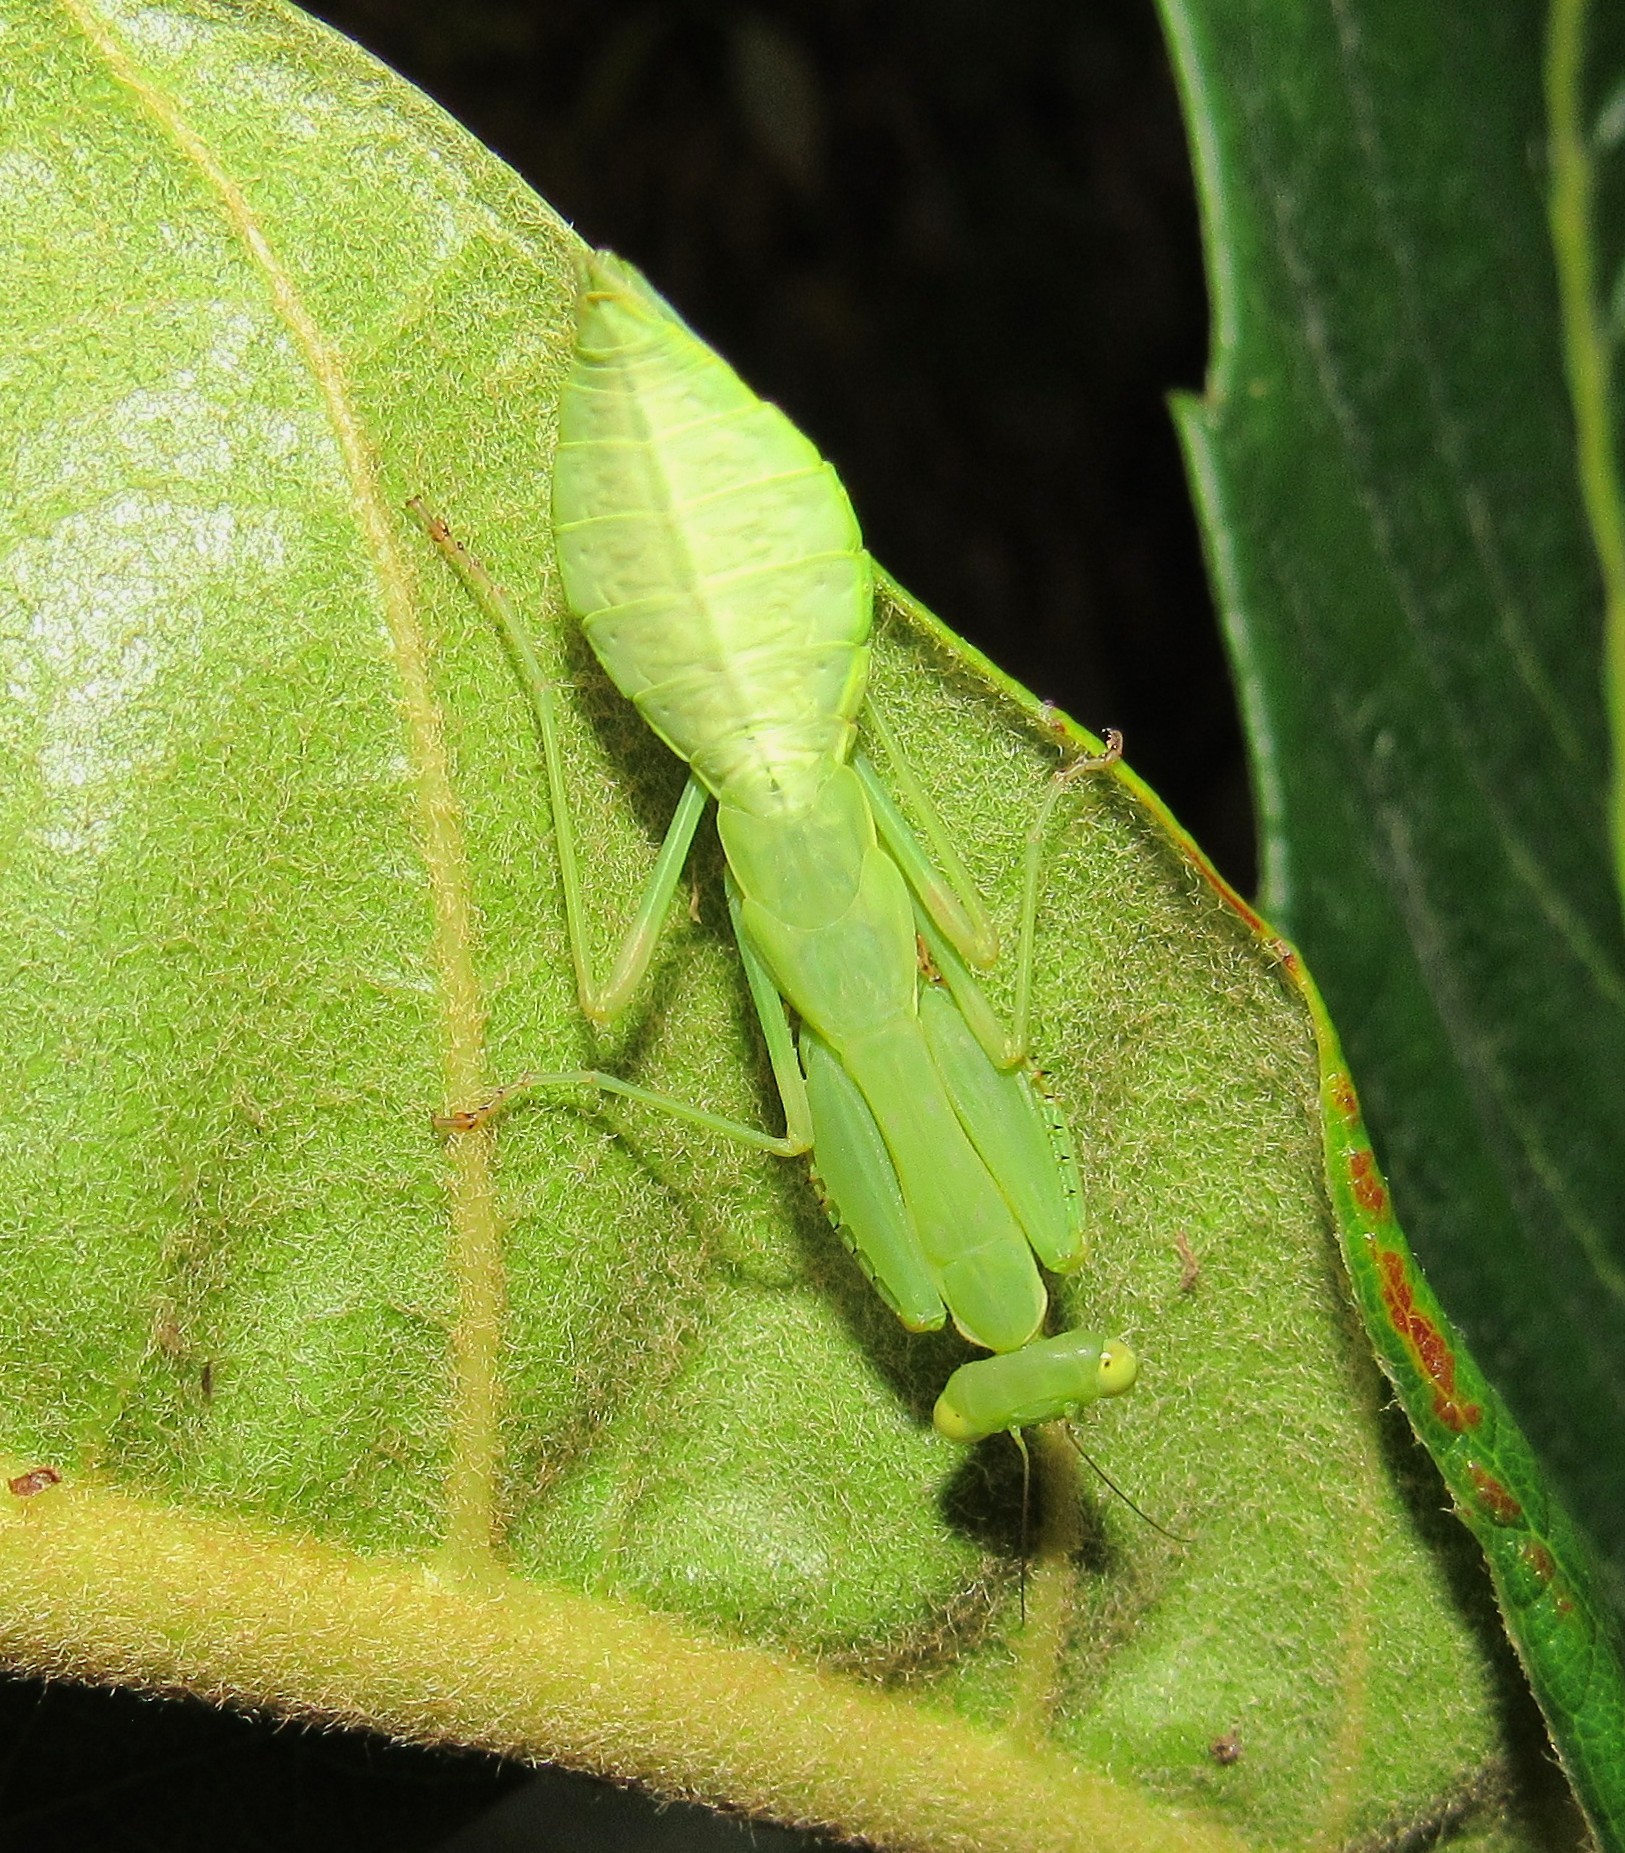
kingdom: Animalia
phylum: Arthropoda
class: Insecta
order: Mantodea
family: Photinaidae
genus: Photina
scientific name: Photina
